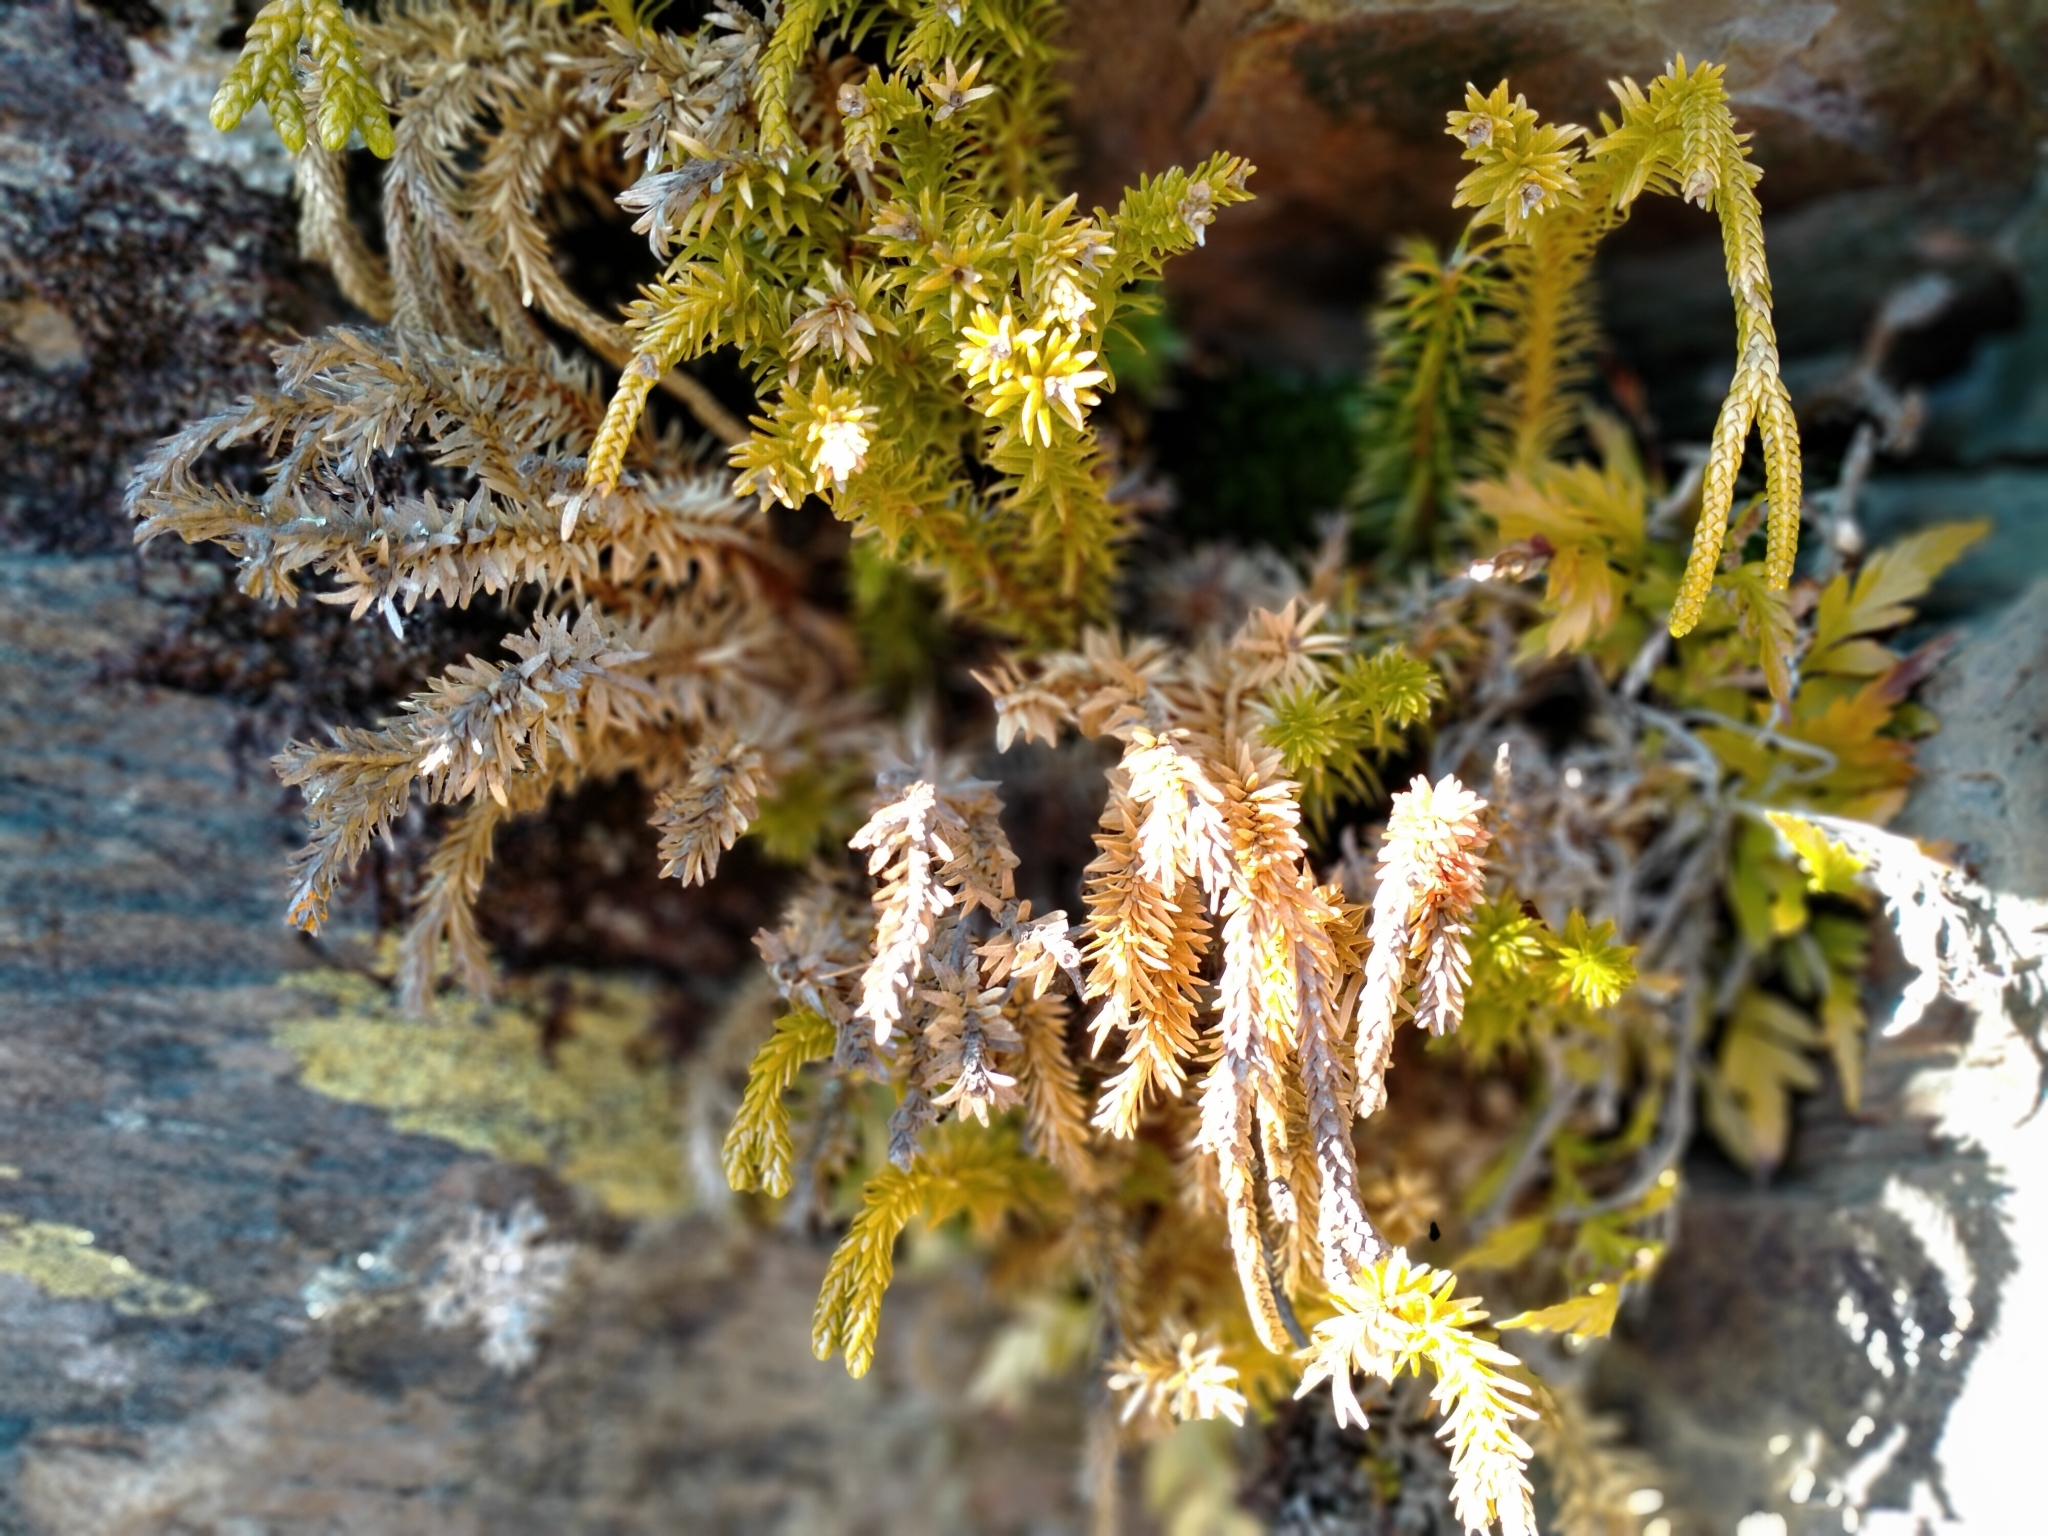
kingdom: Plantae
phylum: Tracheophyta
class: Lycopodiopsida
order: Lycopodiales
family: Lycopodiaceae
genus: Phlegmariurus
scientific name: Phlegmariurus varius
